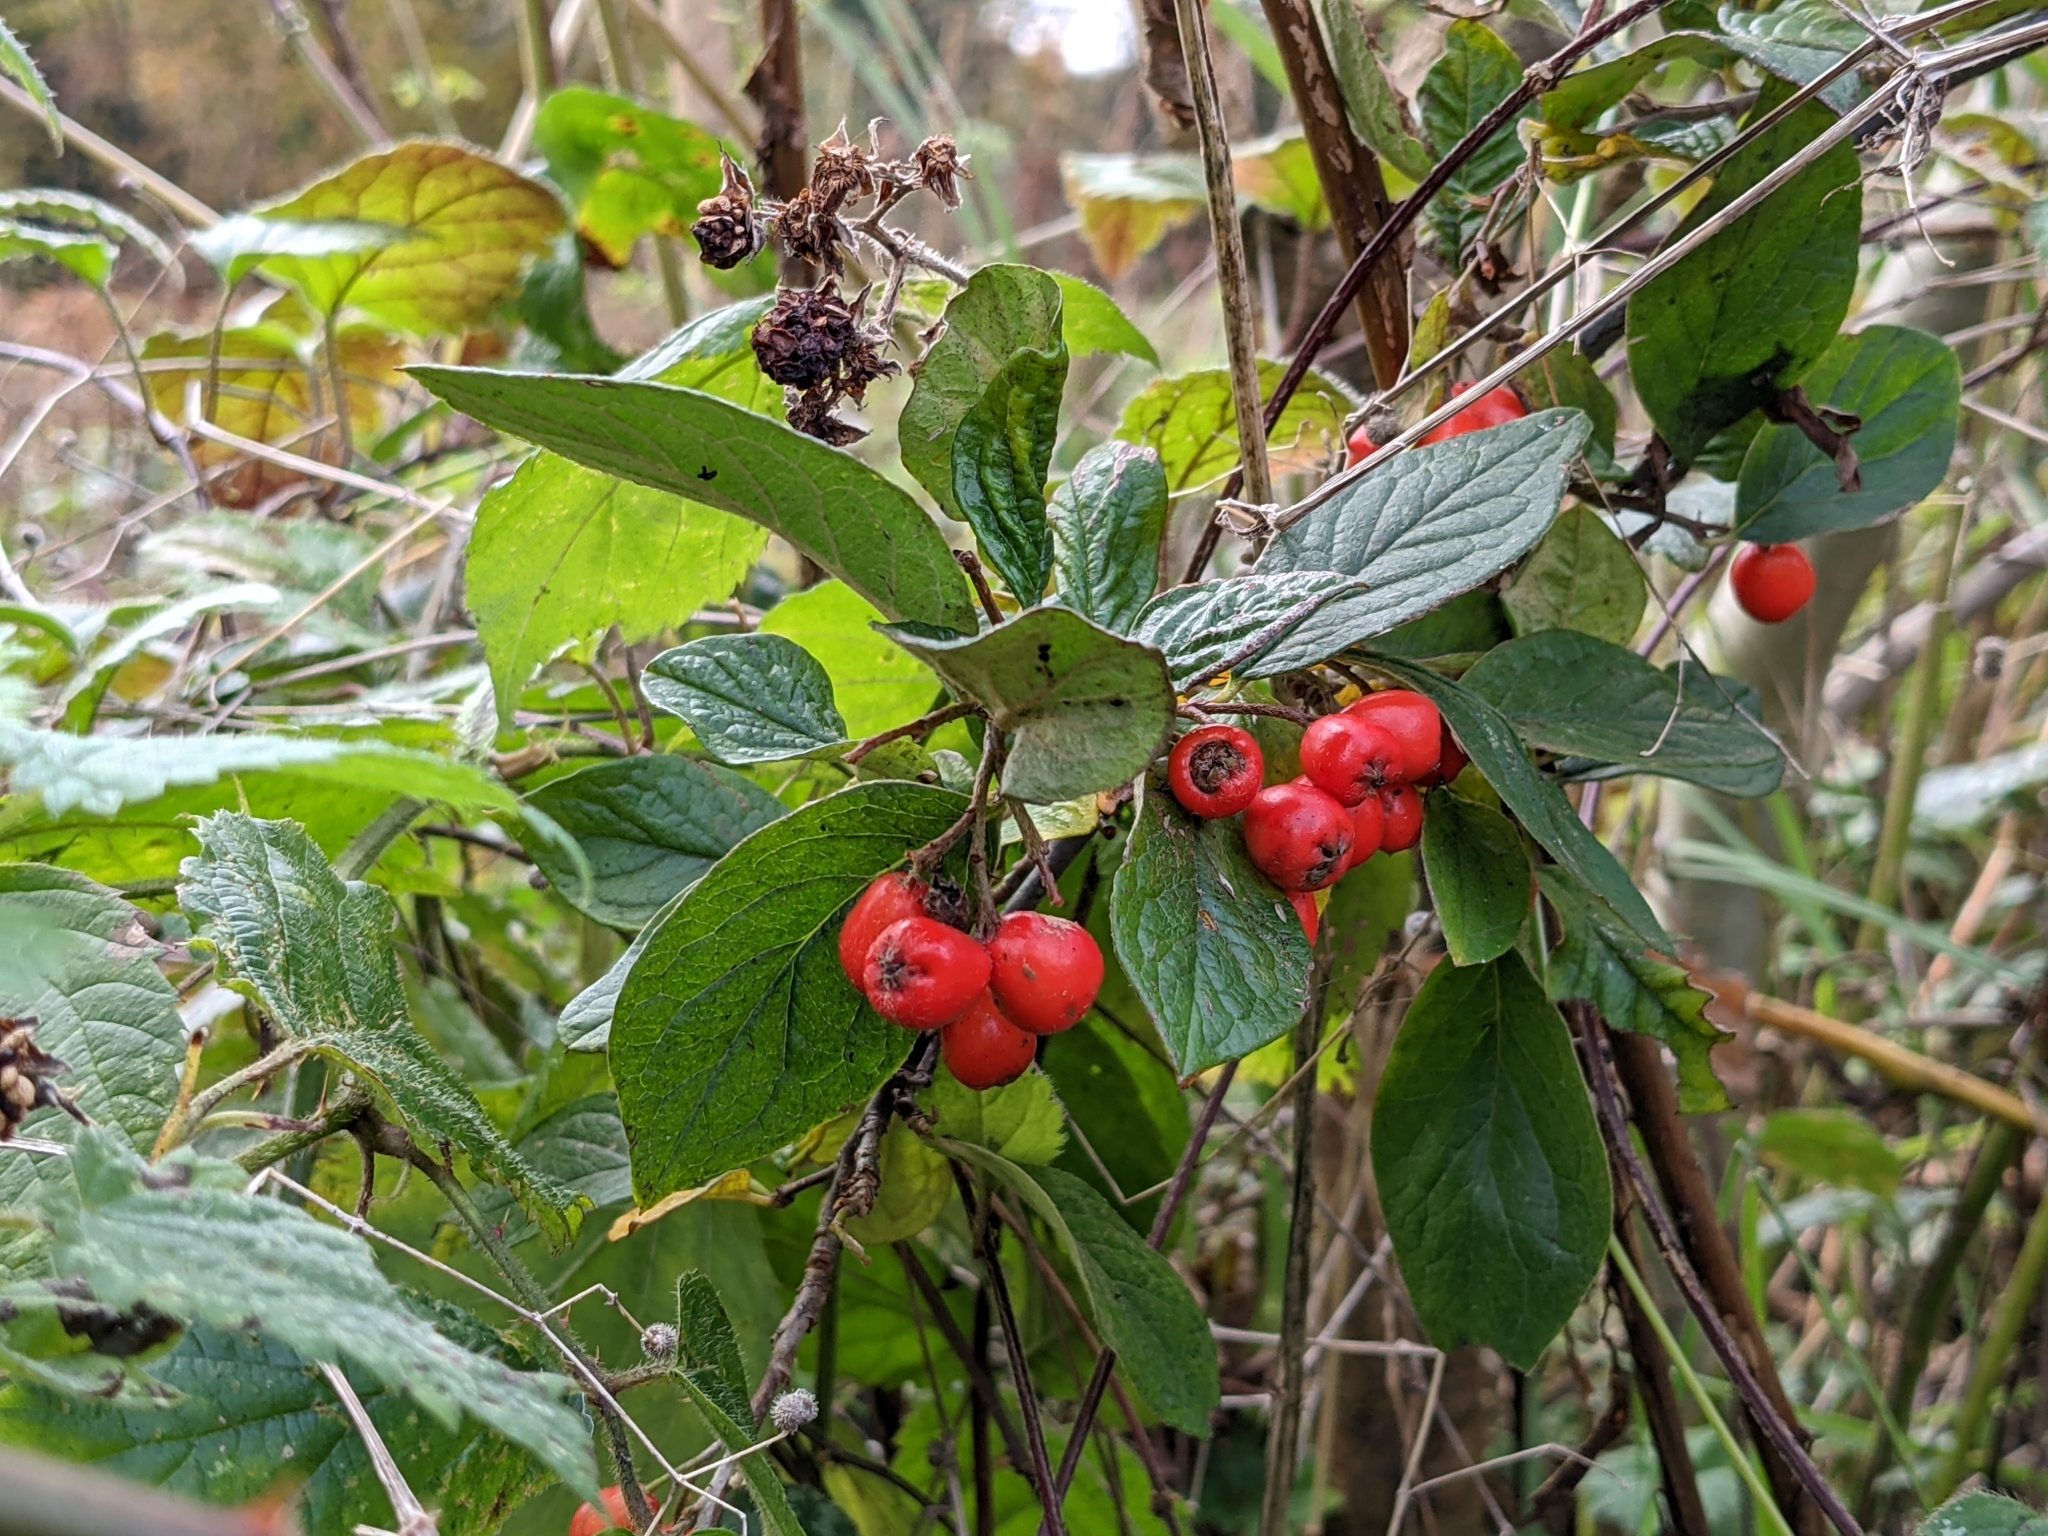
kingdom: Plantae
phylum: Tracheophyta
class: Magnoliopsida
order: Rosales
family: Rosaceae
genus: Cotoneaster
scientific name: Cotoneaster coriaceus
